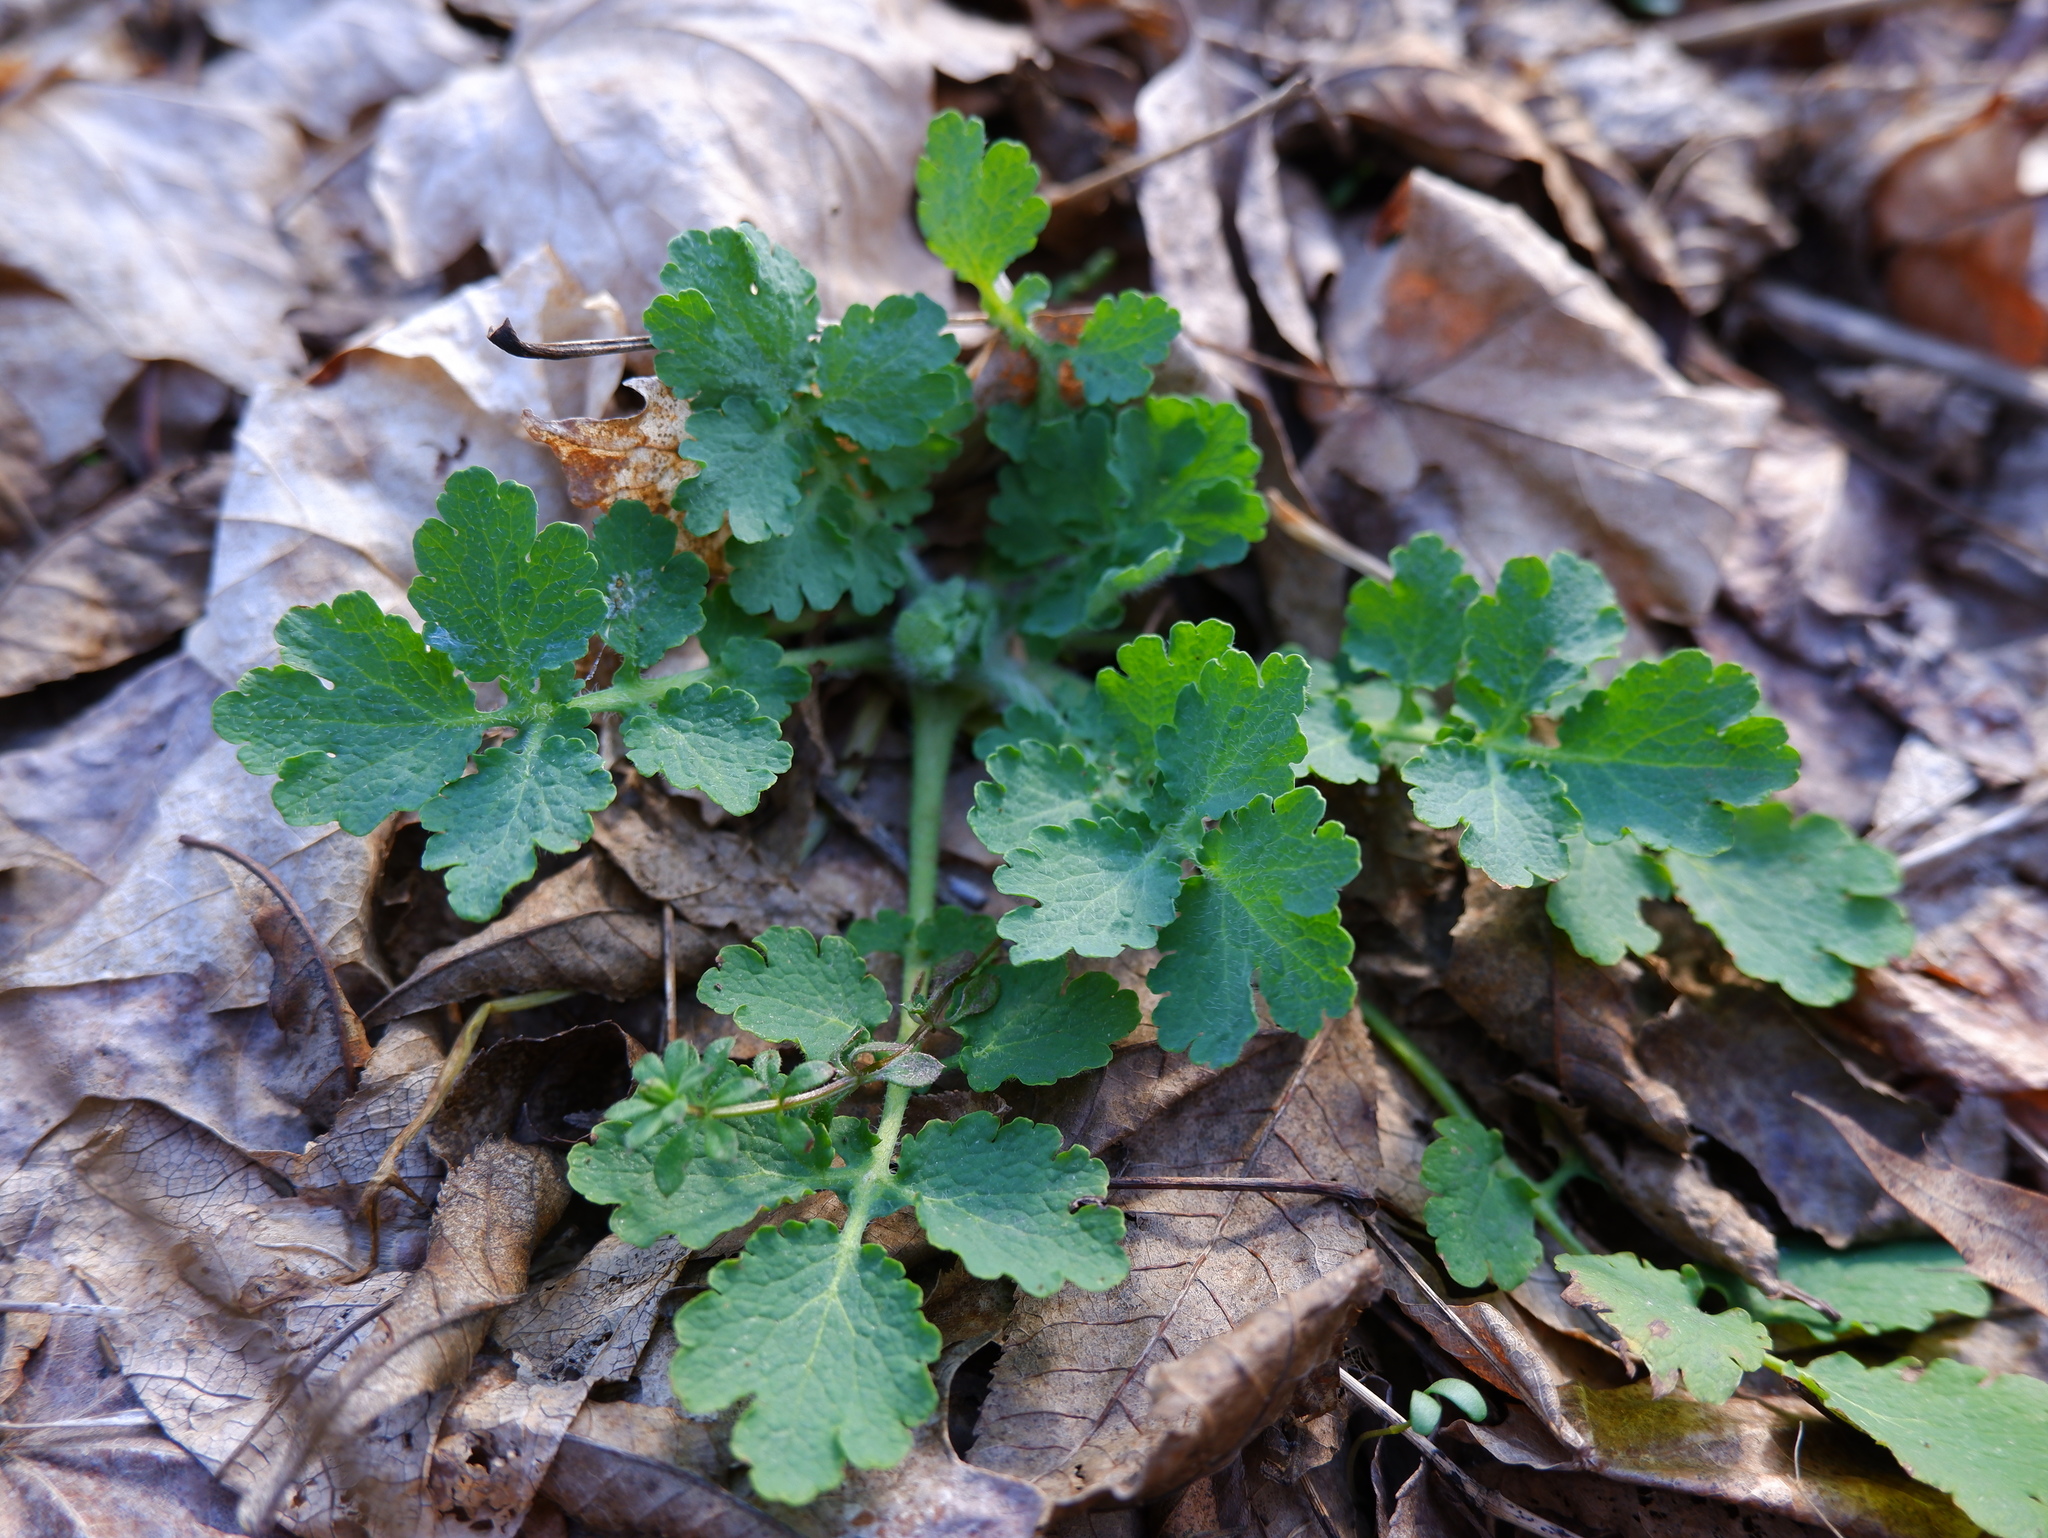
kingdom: Plantae
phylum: Tracheophyta
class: Magnoliopsida
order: Ranunculales
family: Papaveraceae
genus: Chelidonium
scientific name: Chelidonium majus
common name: Greater celandine
